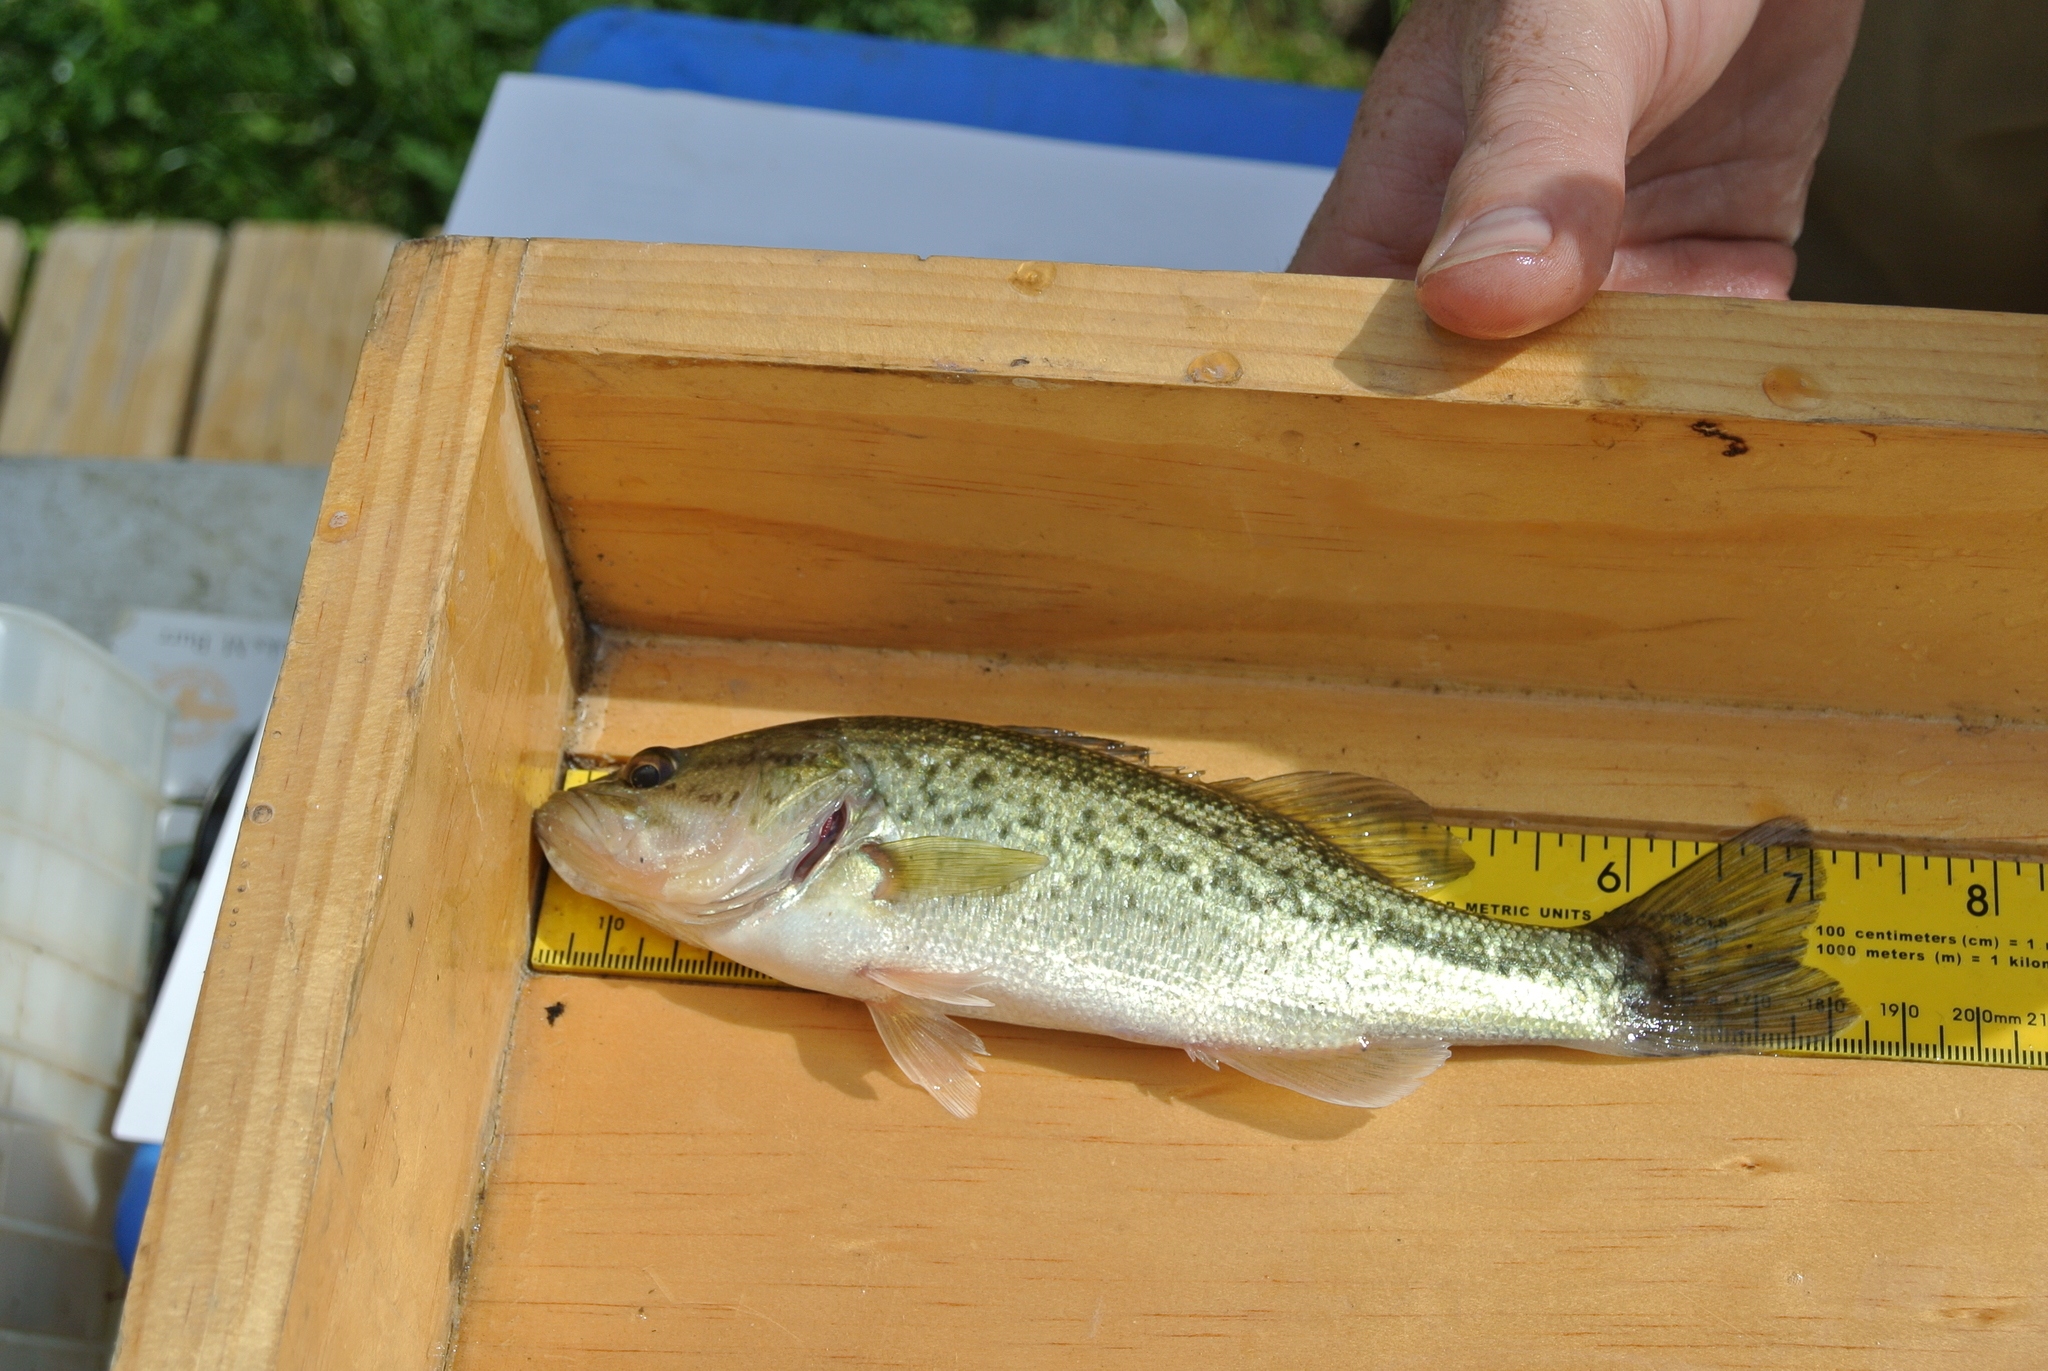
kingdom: Animalia
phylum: Chordata
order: Perciformes
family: Centrarchidae
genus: Micropterus
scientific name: Micropterus
